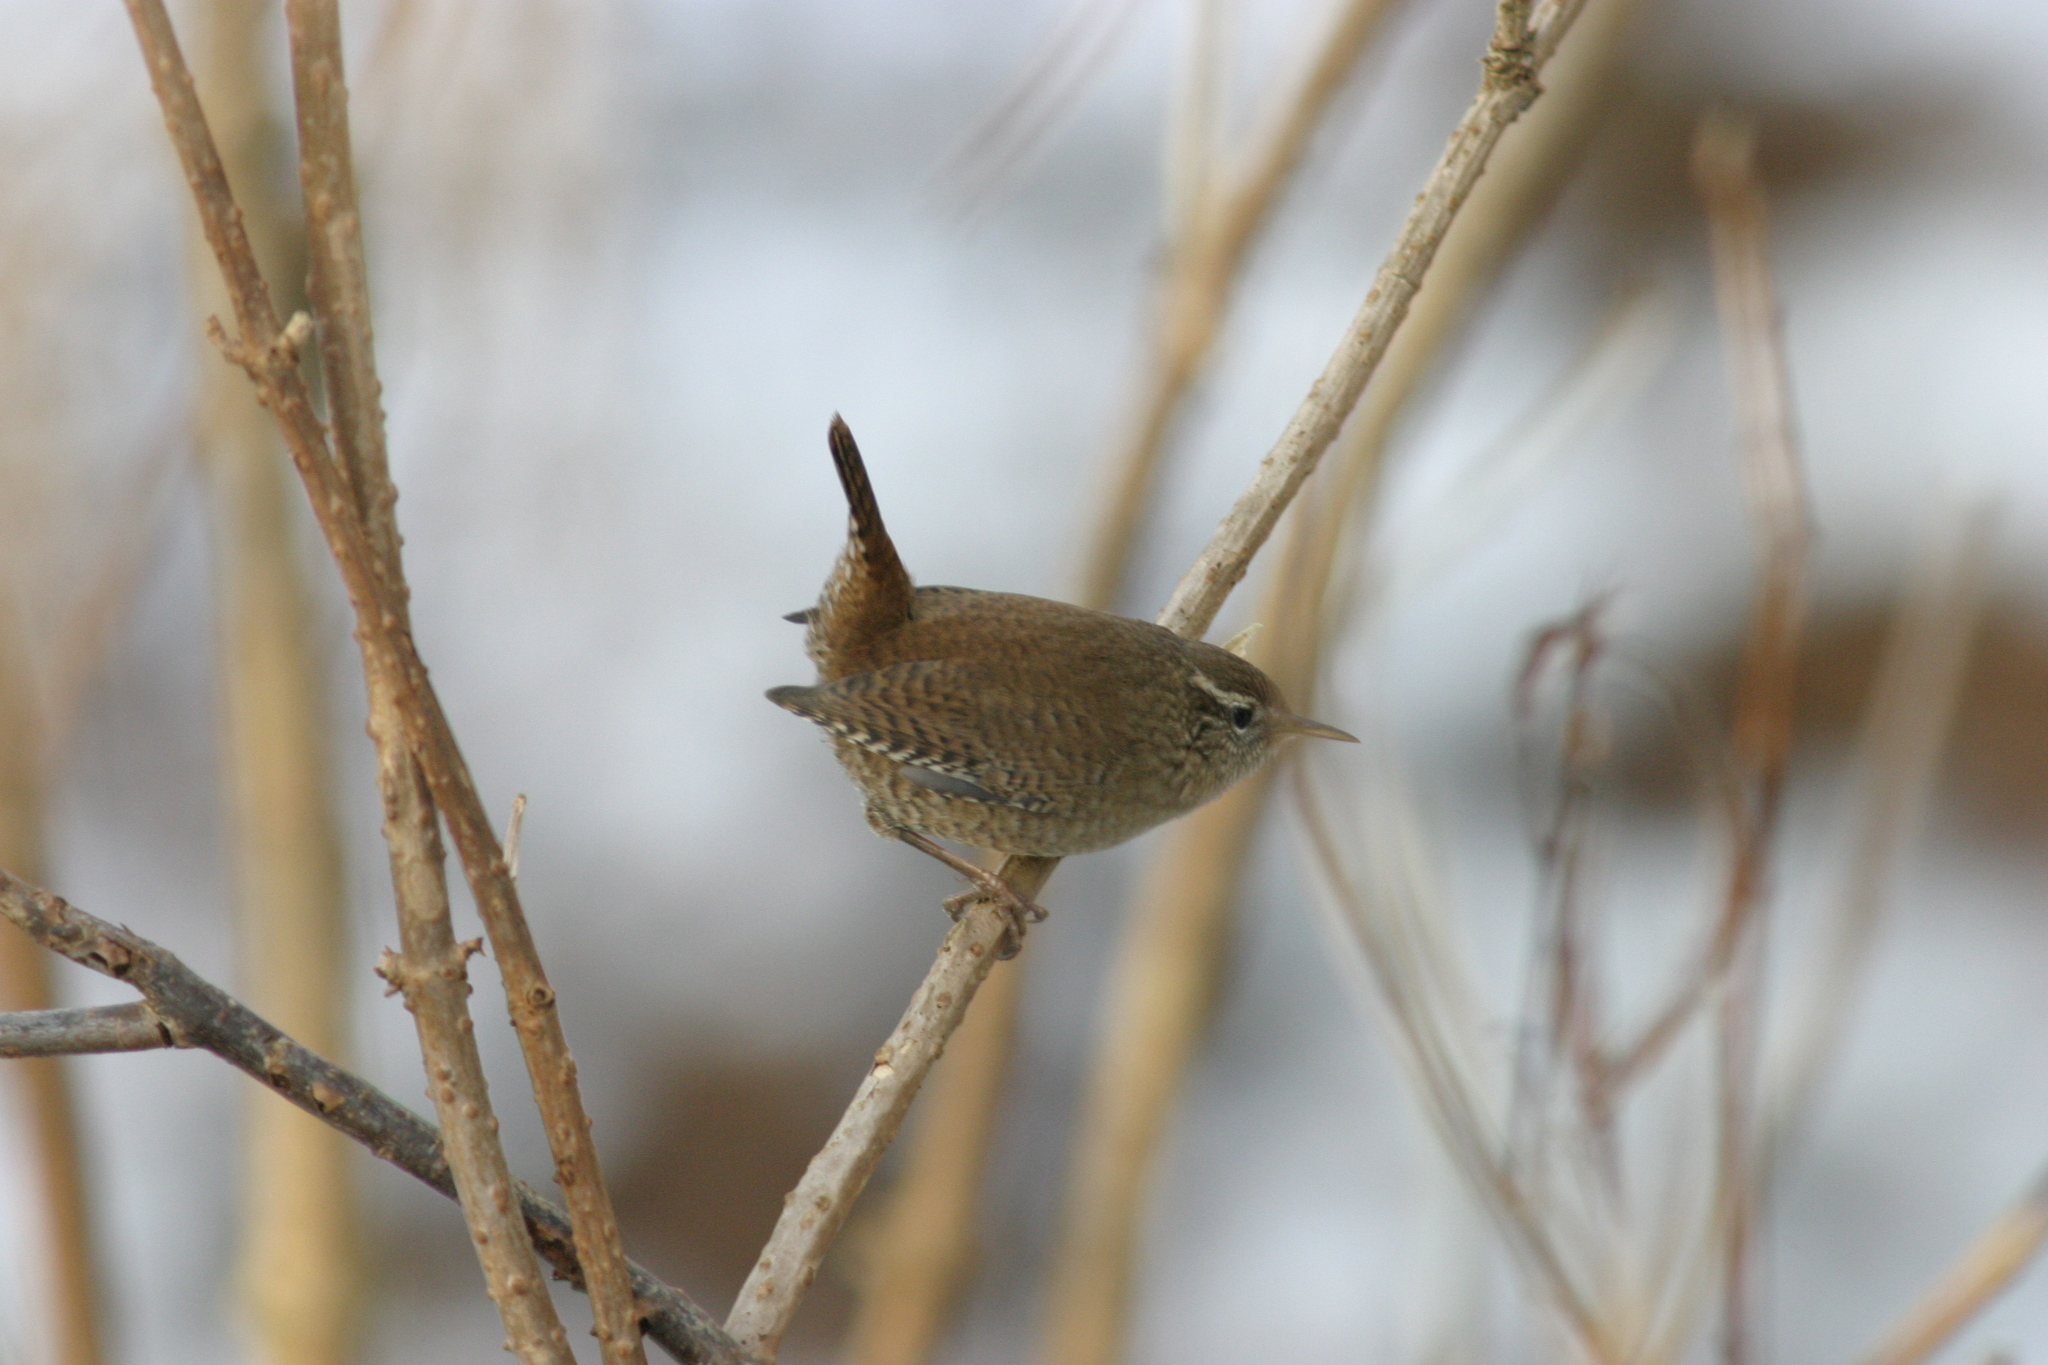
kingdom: Animalia
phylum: Chordata
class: Aves
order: Passeriformes
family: Troglodytidae
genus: Troglodytes
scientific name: Troglodytes troglodytes
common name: Eurasian wren
